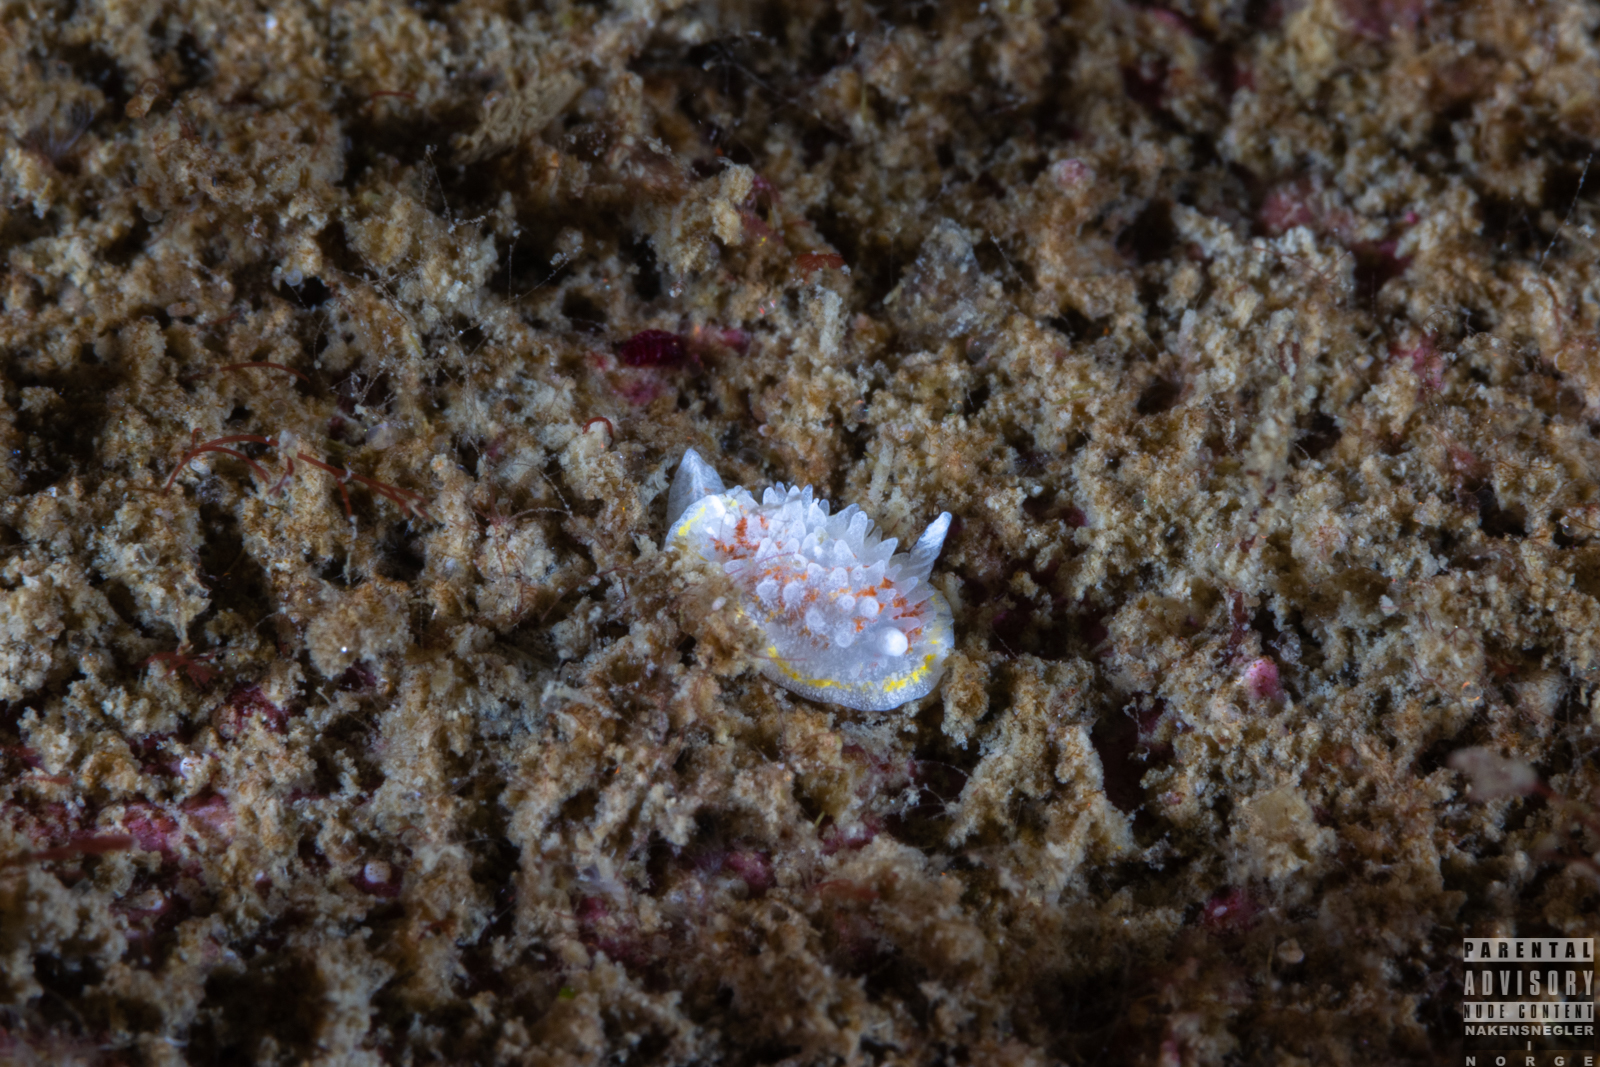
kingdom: Animalia
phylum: Mollusca
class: Gastropoda
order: Nudibranchia
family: Calycidorididae
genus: Diaphorodoris
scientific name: Diaphorodoris luteocincta
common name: Fried egg nudibranch
